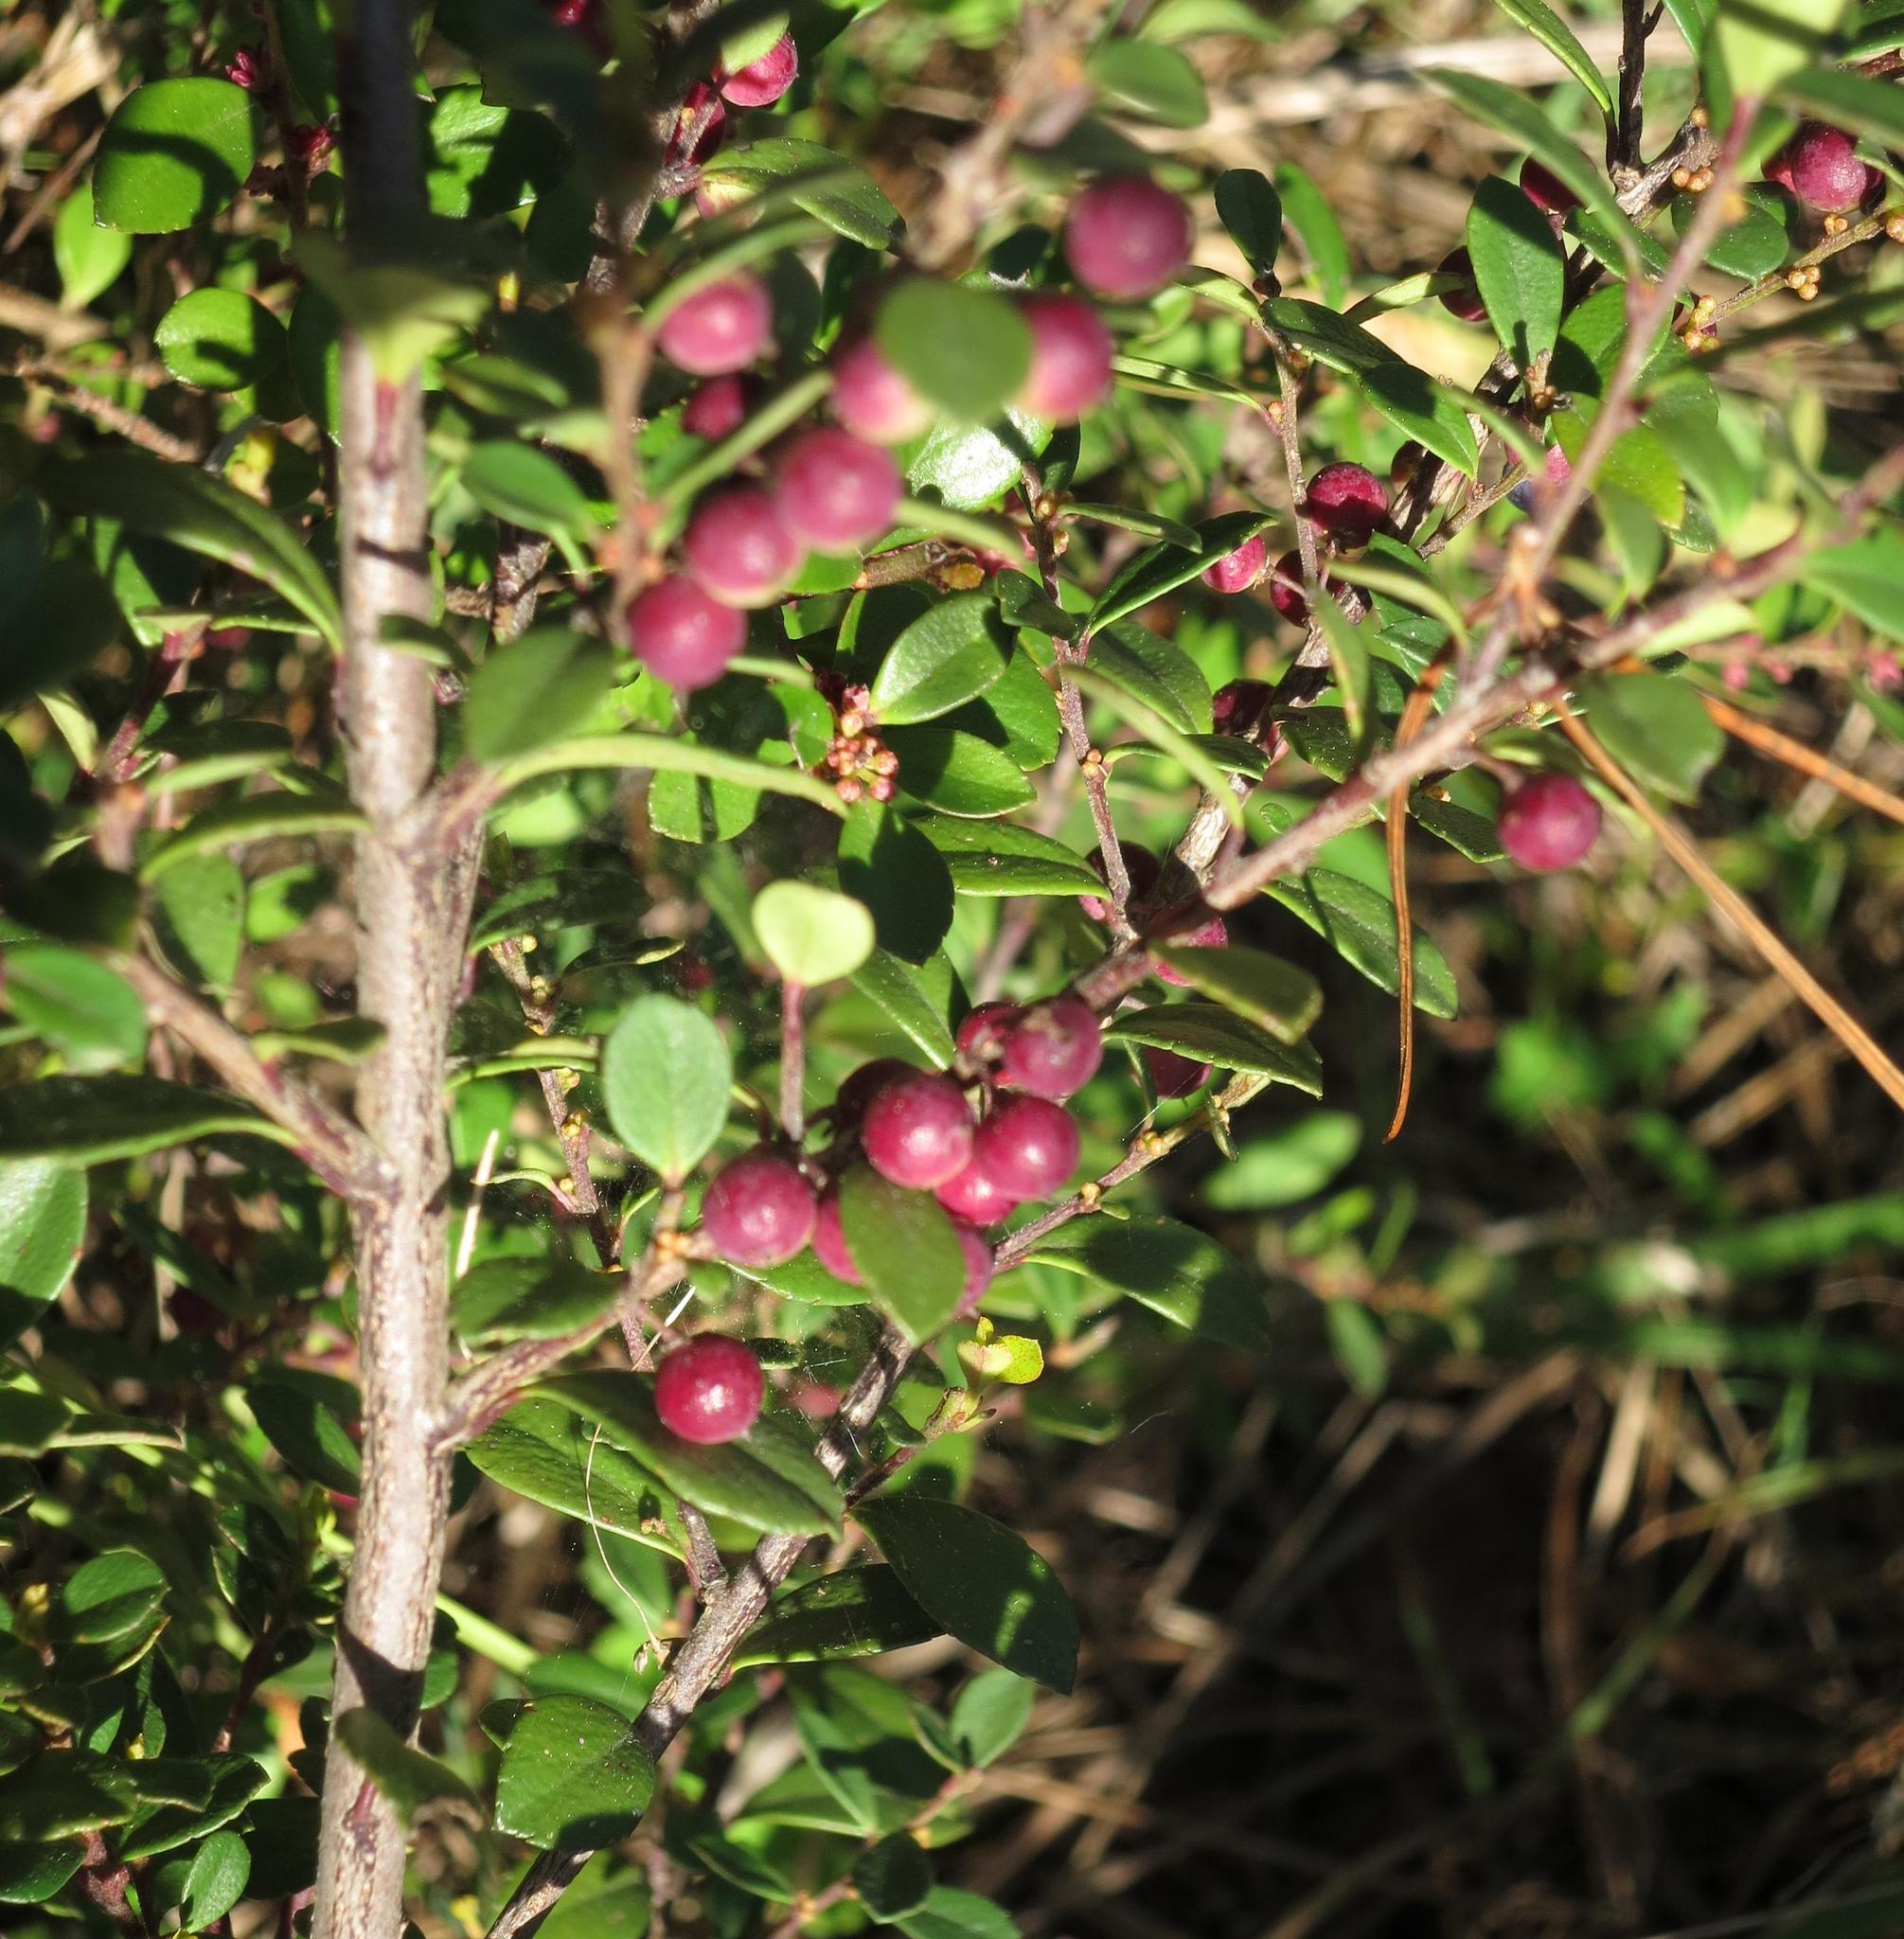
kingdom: Plantae
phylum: Tracheophyta
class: Magnoliopsida
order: Ericales
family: Primulaceae
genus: Myrsine
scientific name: Myrsine africana
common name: African-boxwood
